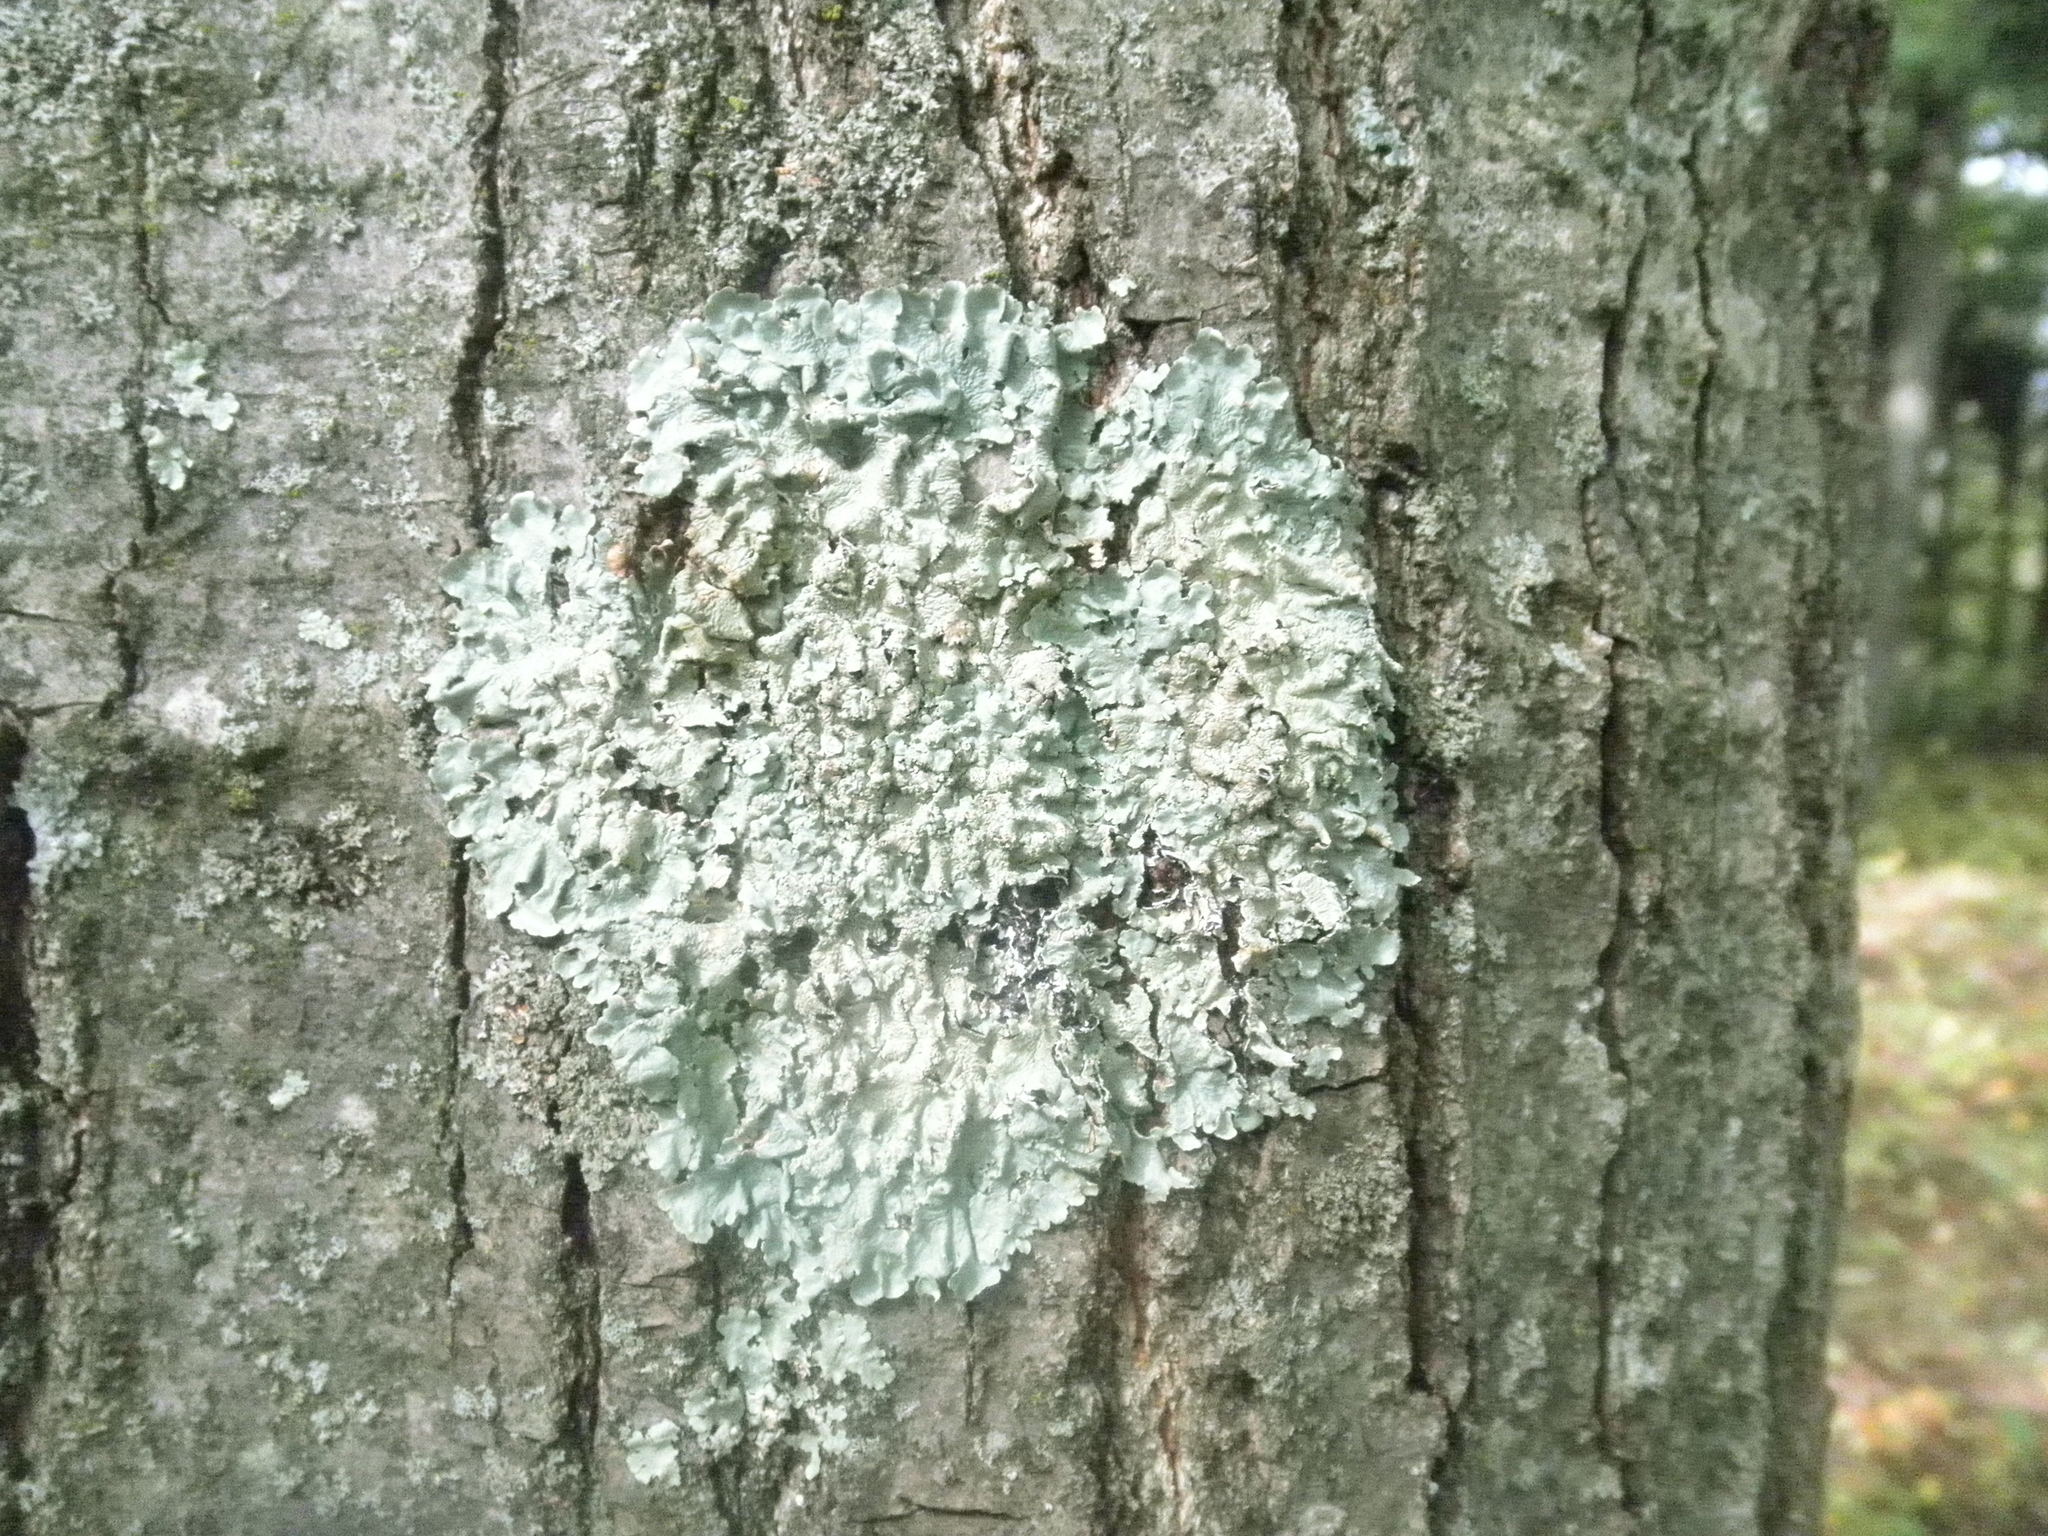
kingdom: Fungi
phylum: Ascomycota
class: Lecanoromycetes
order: Lecanorales
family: Parmeliaceae
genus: Flavoparmelia
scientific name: Flavoparmelia caperata
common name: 40-mile per hour lichen
